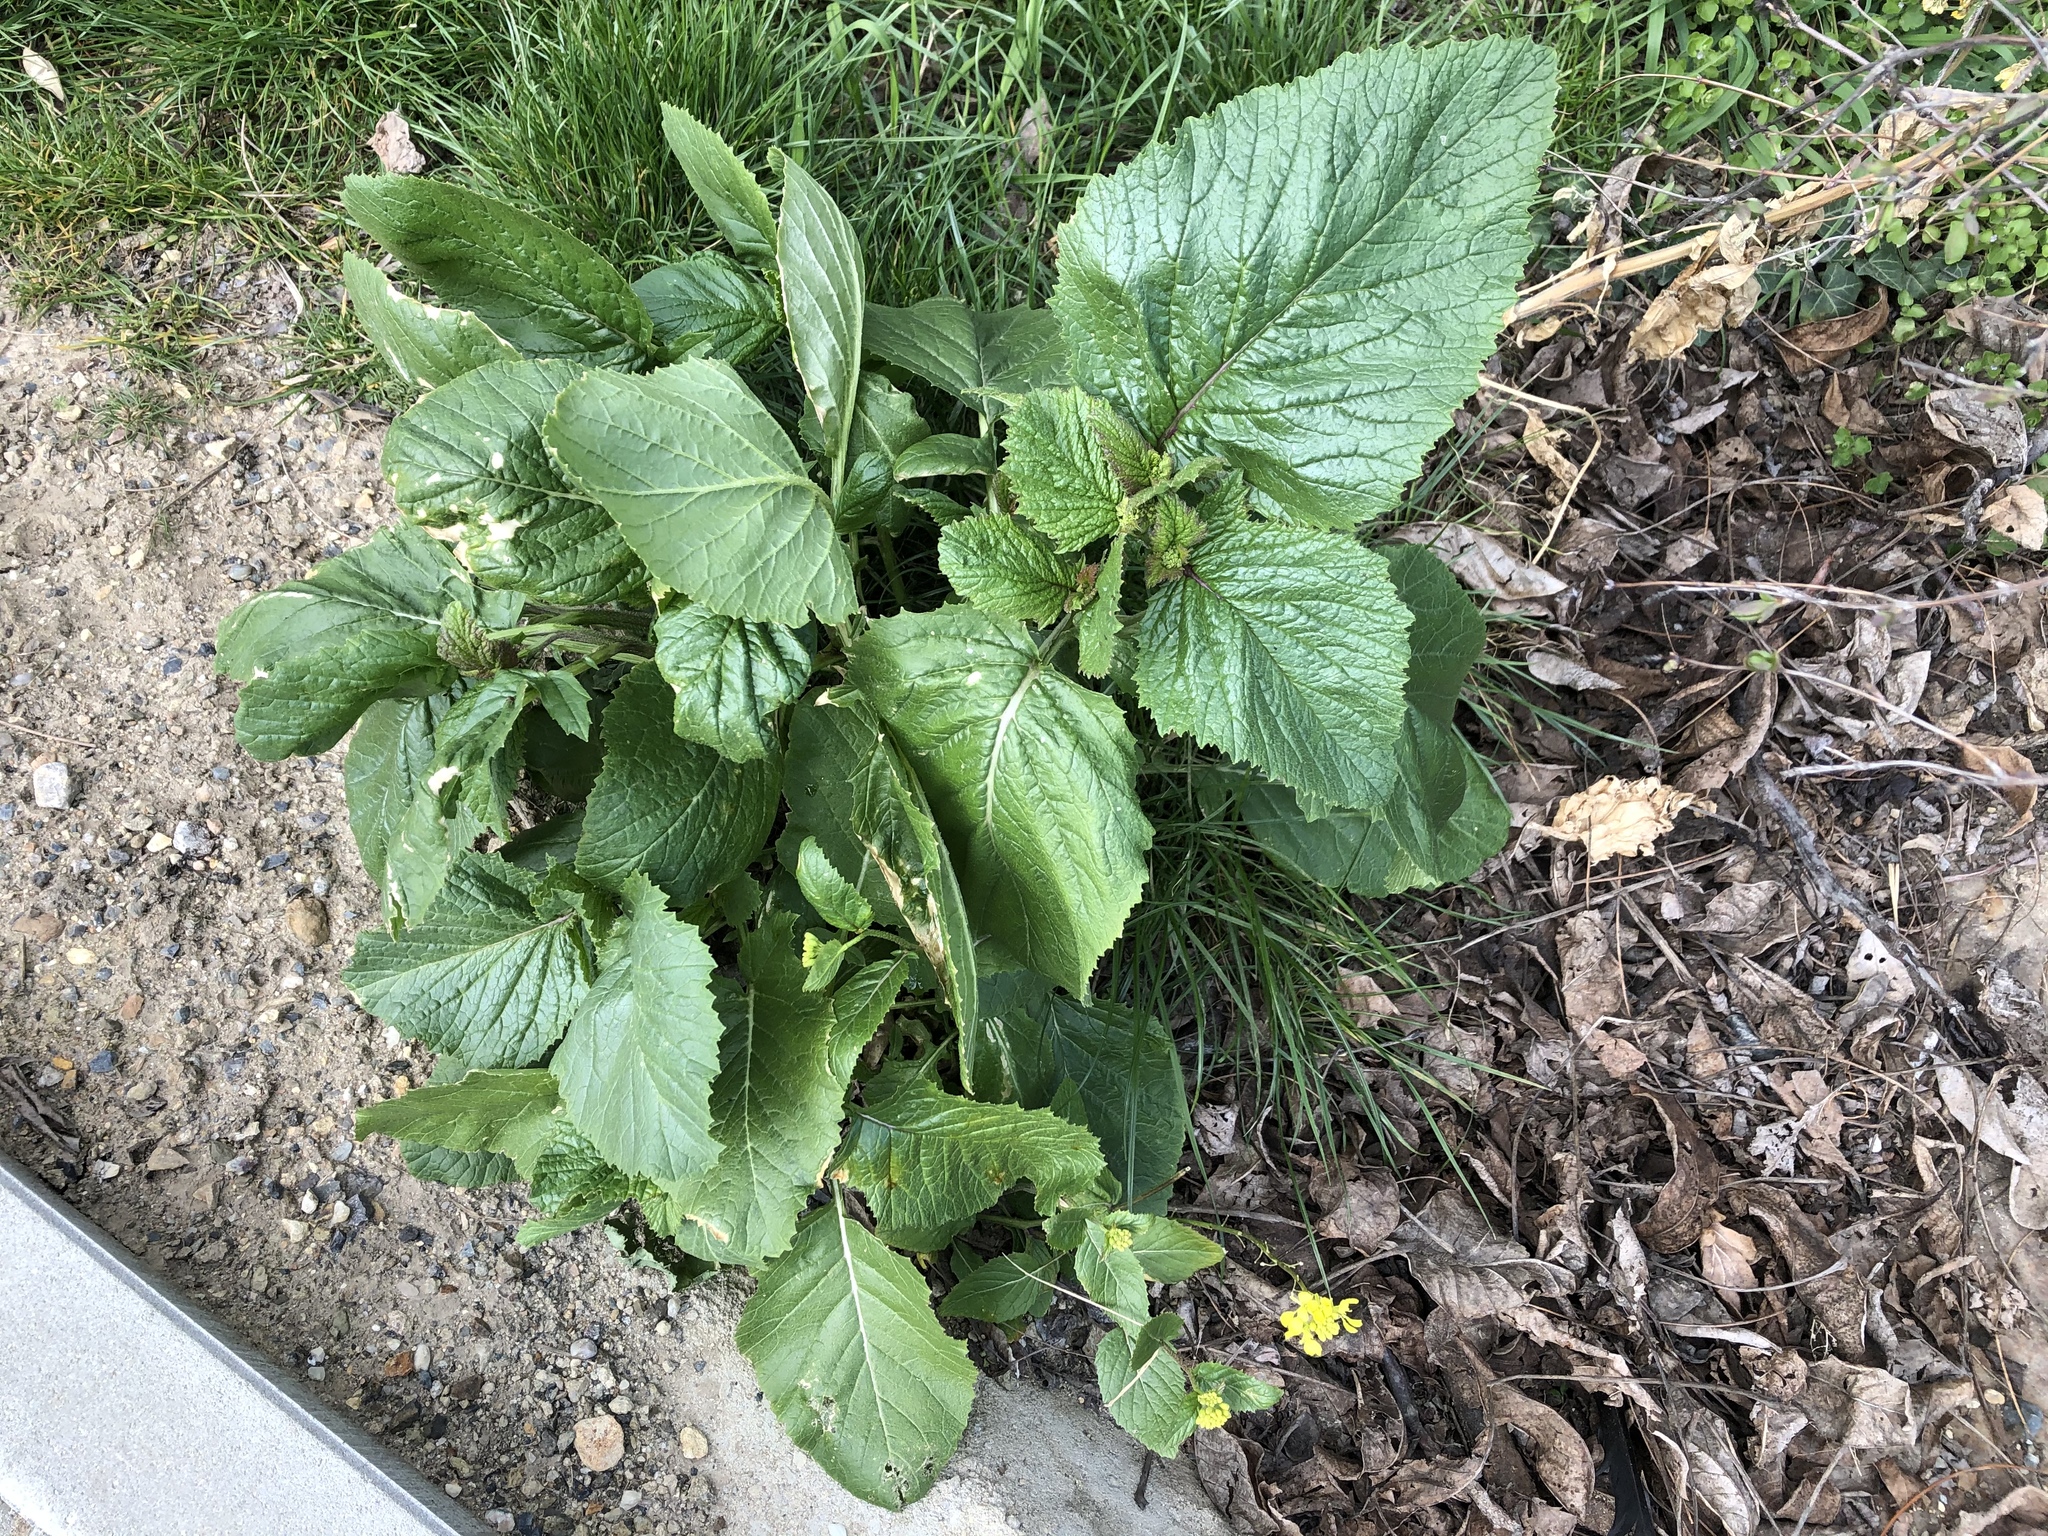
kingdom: Plantae
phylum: Tracheophyta
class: Magnoliopsida
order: Brassicales
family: Brassicaceae
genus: Sinapis
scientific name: Sinapis arvensis
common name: Charlock
